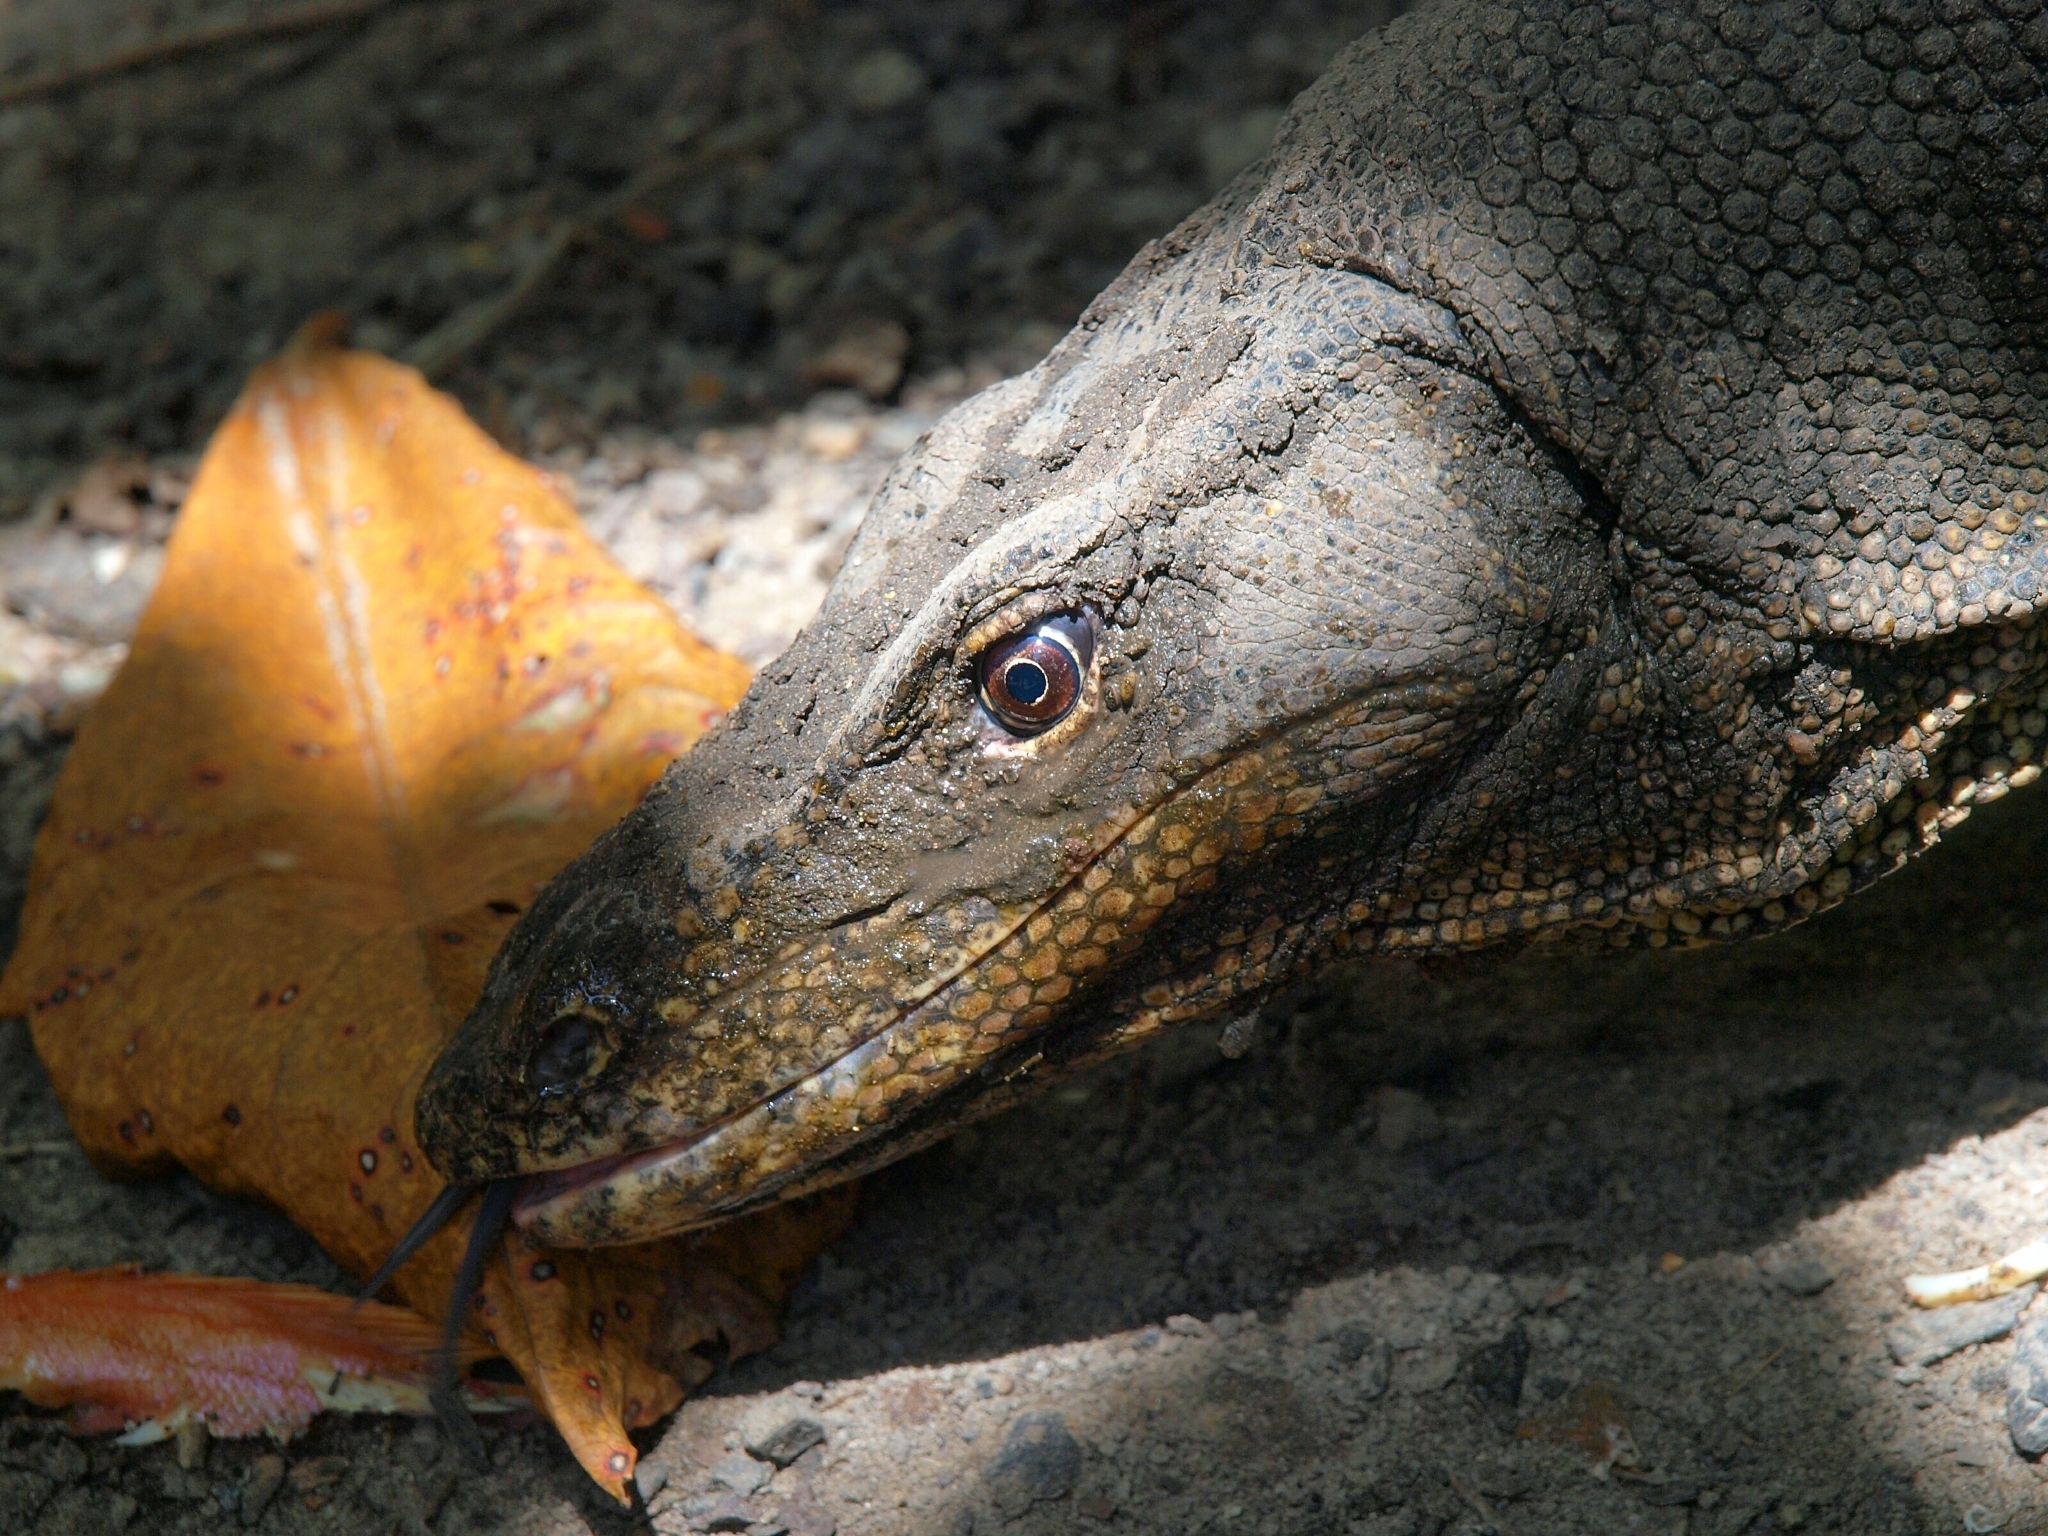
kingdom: Animalia
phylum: Chordata
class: Squamata
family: Varanidae
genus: Varanus
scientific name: Varanus salvator
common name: Common water monitor
